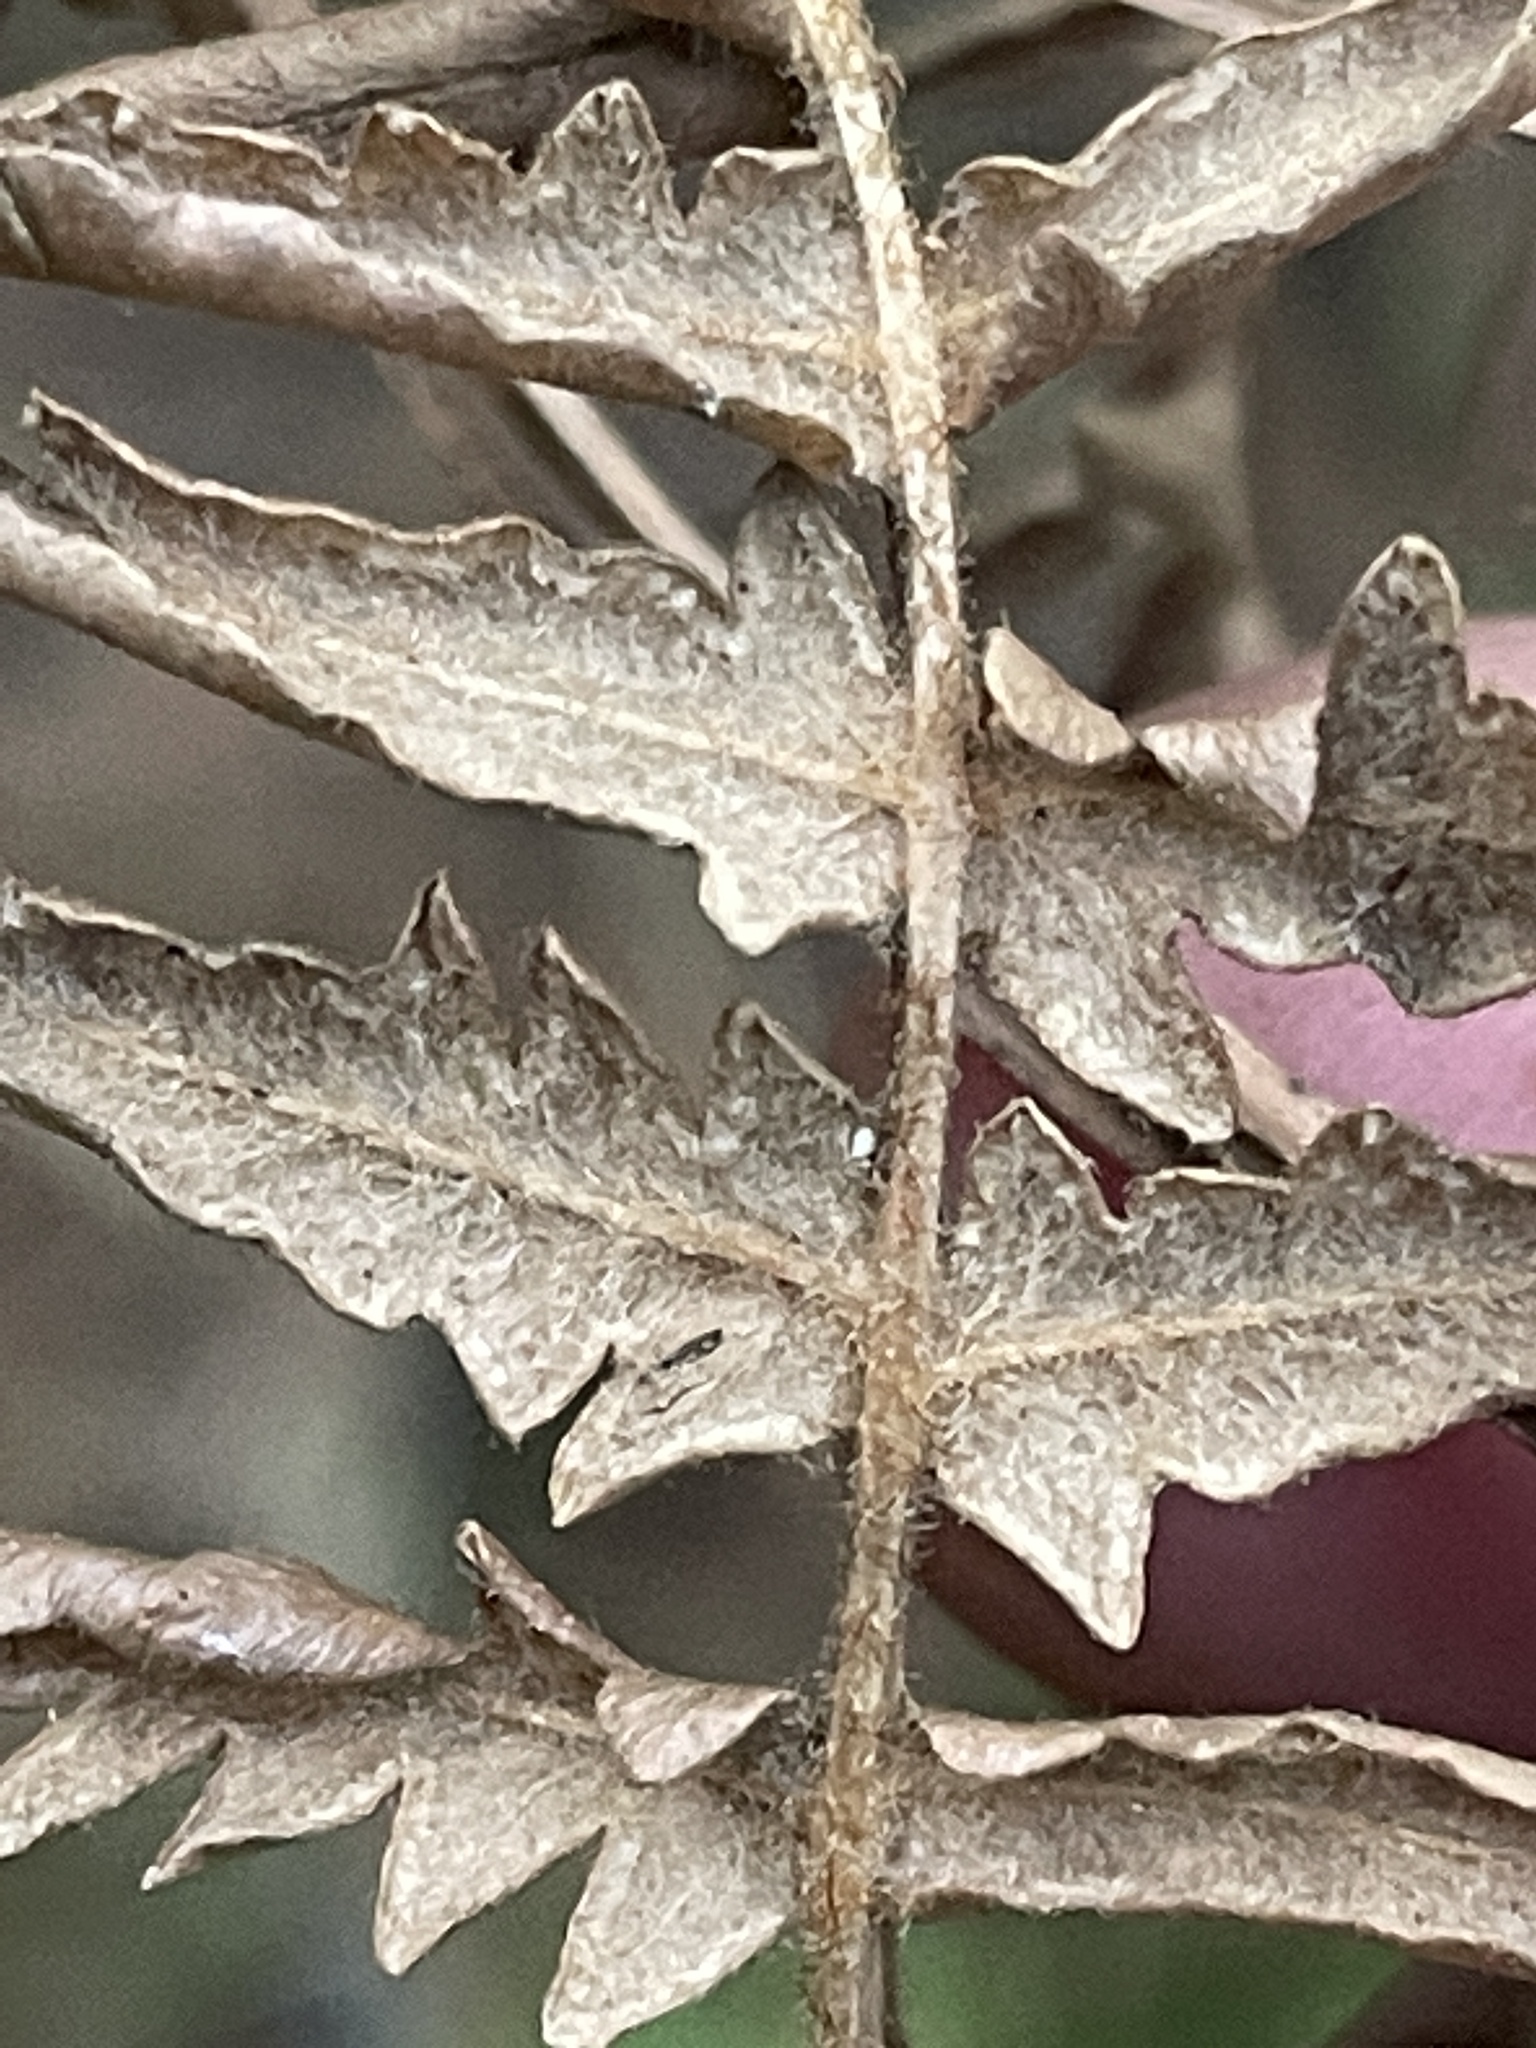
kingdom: Plantae
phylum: Tracheophyta
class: Polypodiopsida
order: Polypodiales
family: Dennstaedtiaceae
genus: Pteridium
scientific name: Pteridium aquilinum
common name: Bracken
